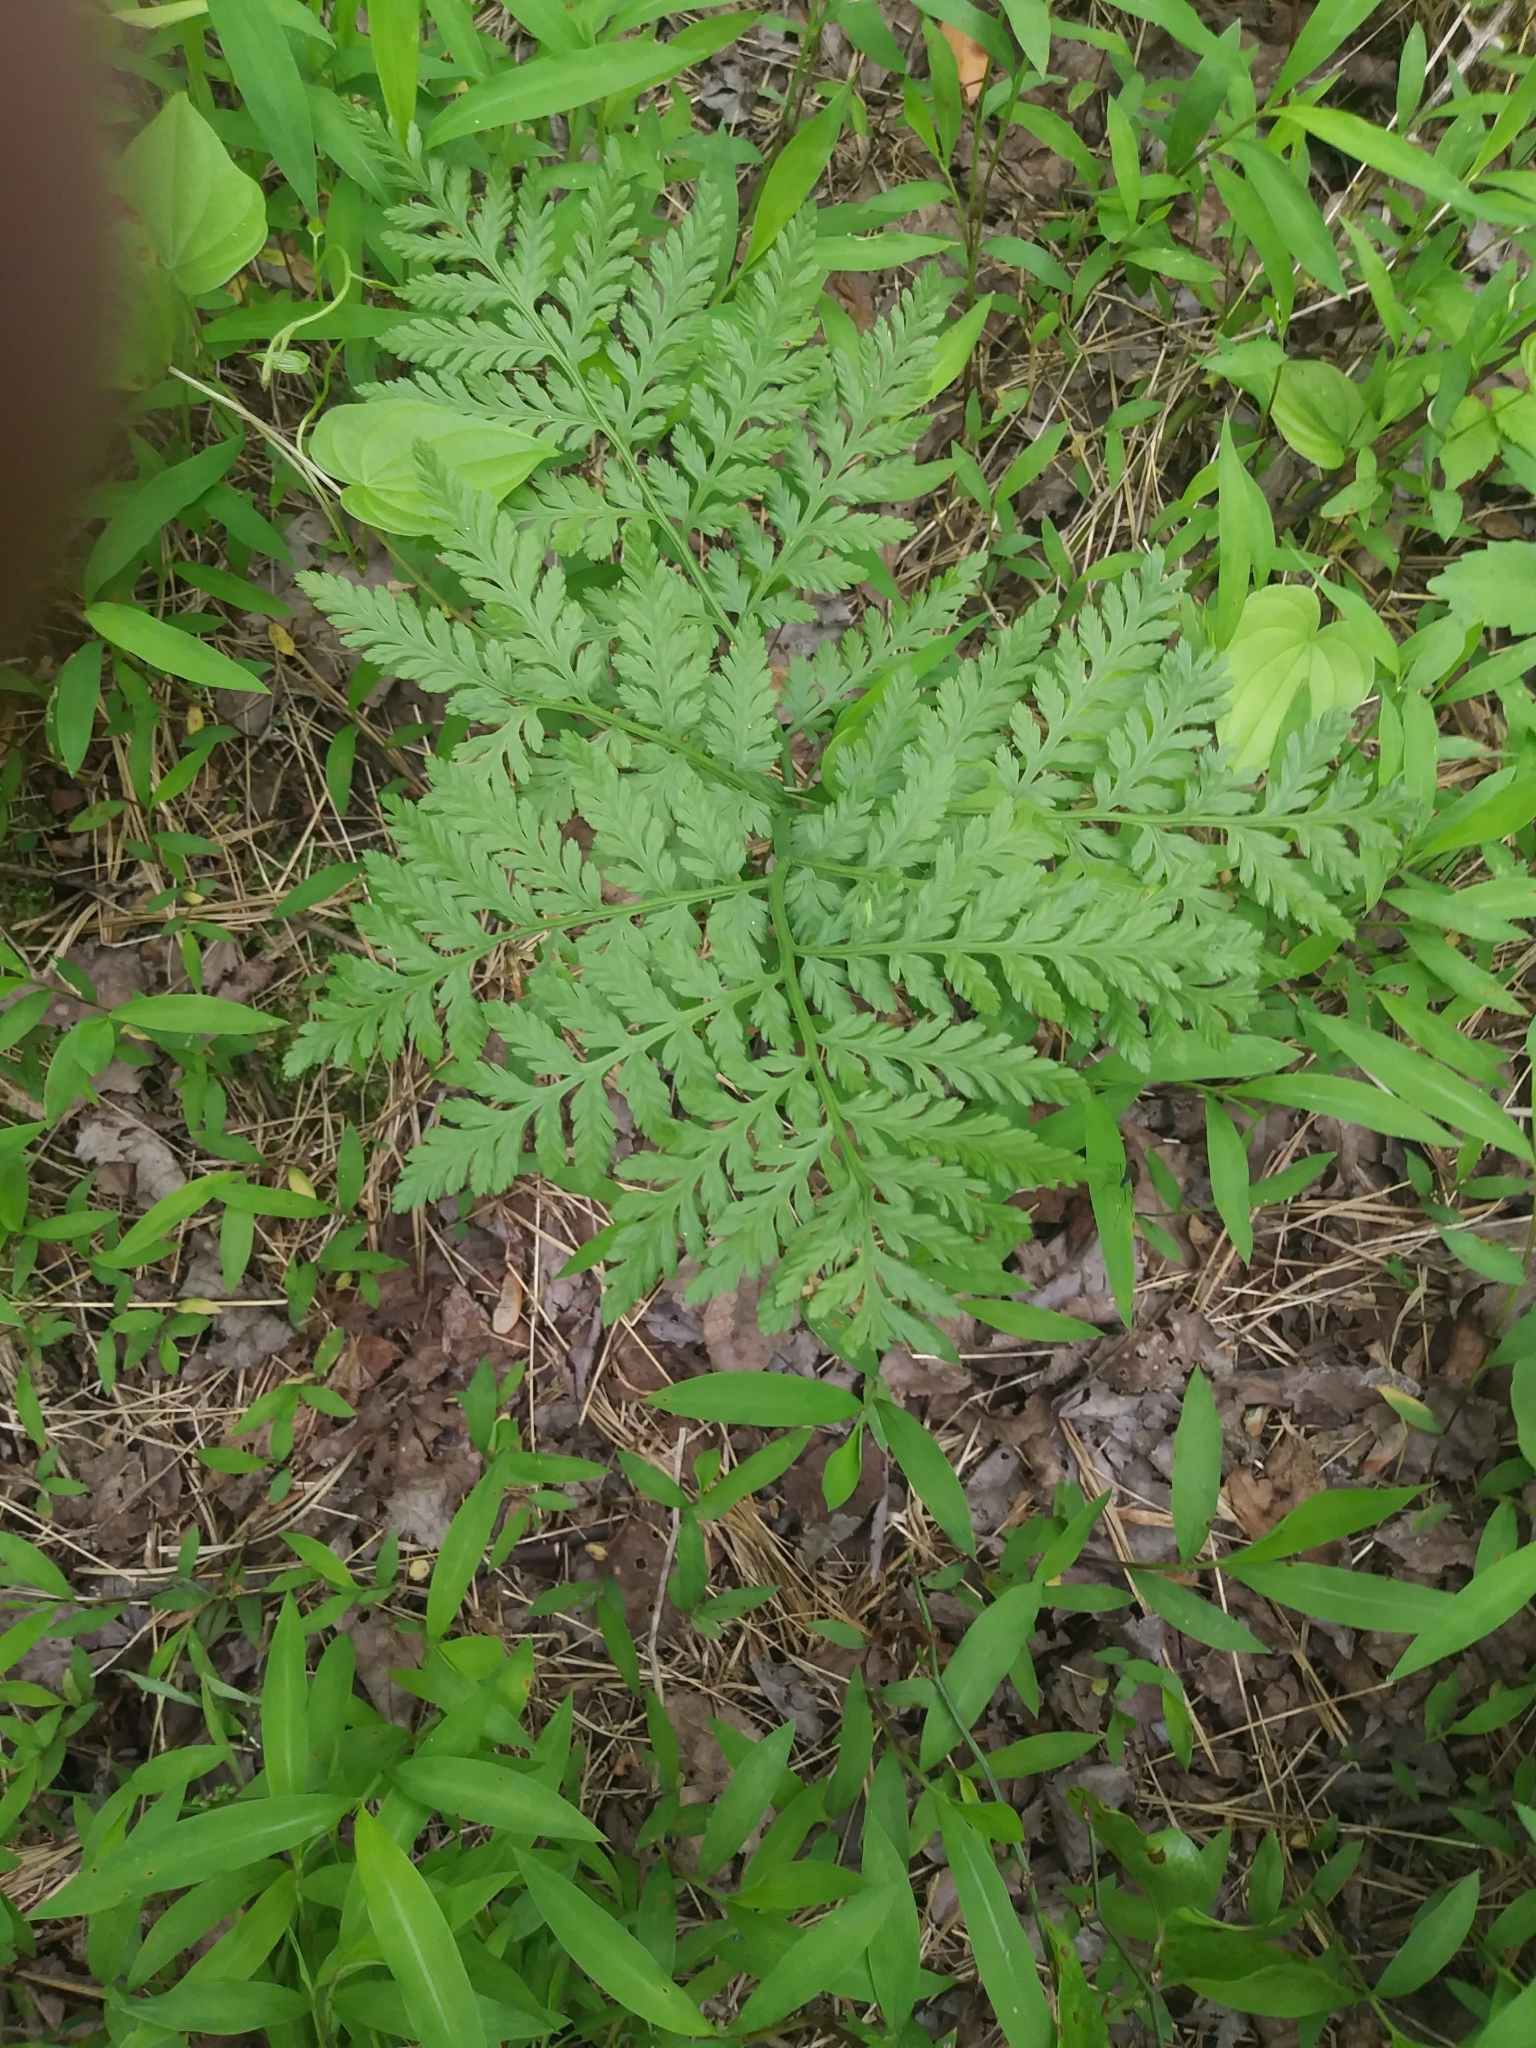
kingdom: Plantae
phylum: Tracheophyta
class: Polypodiopsida
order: Ophioglossales
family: Ophioglossaceae
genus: Botrypus
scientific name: Botrypus virginianus
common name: Common grapefern
